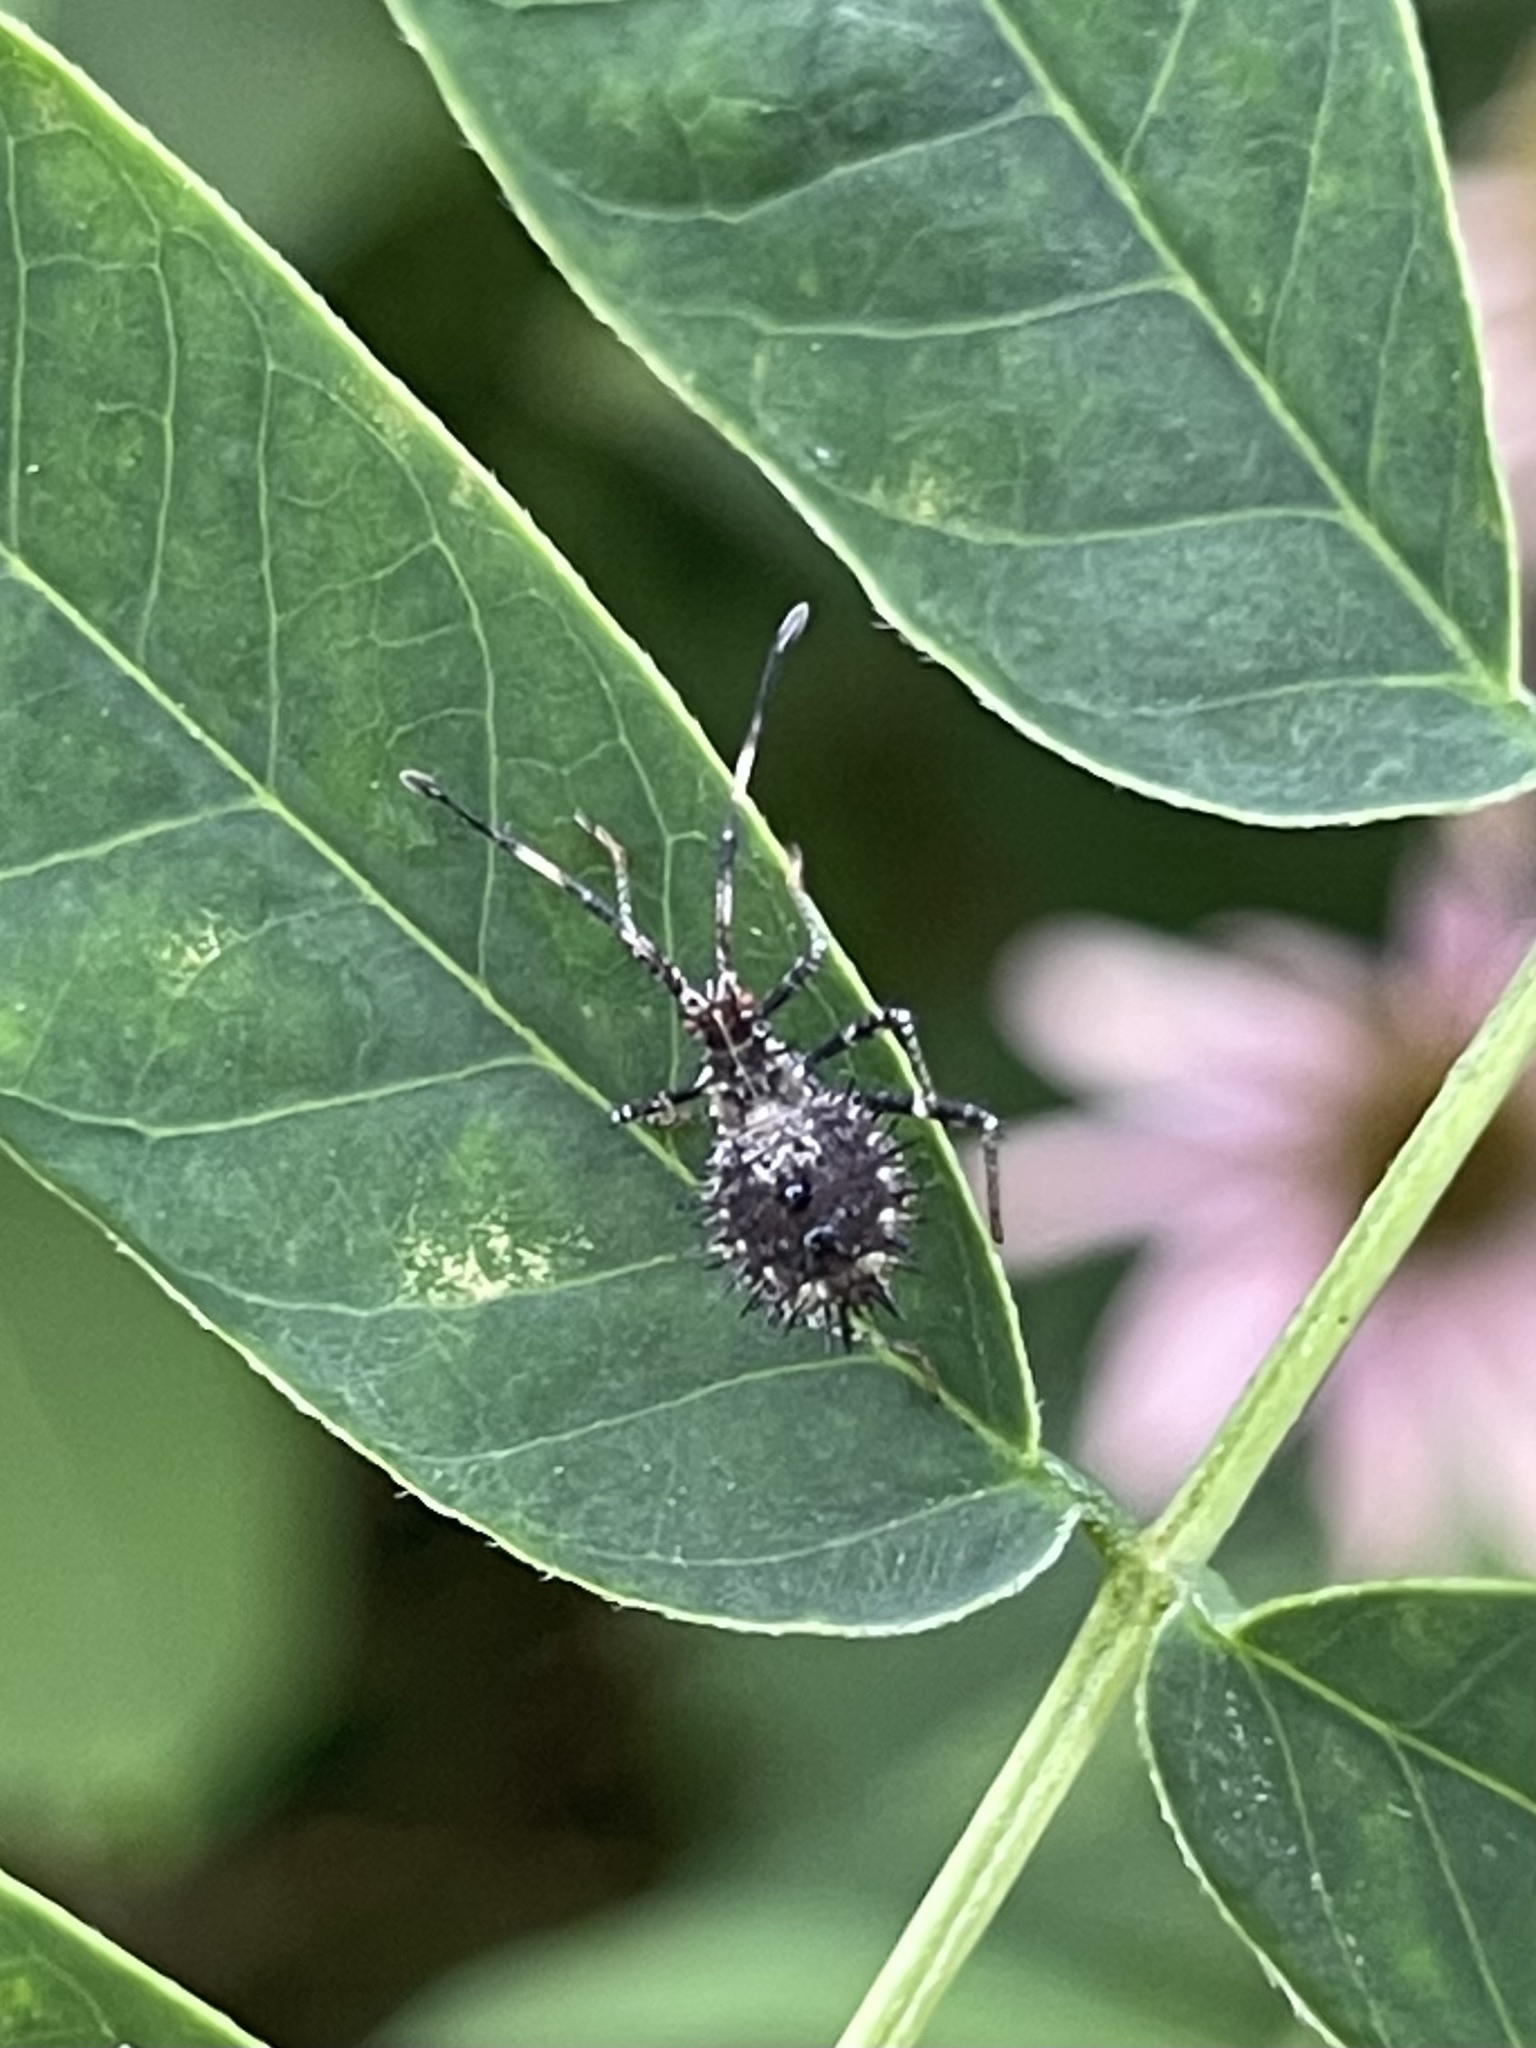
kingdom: Animalia
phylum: Arthropoda
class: Insecta
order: Hemiptera
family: Coreidae
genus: Euthochtha
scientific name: Euthochtha galeator
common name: Helmeted squash bug
